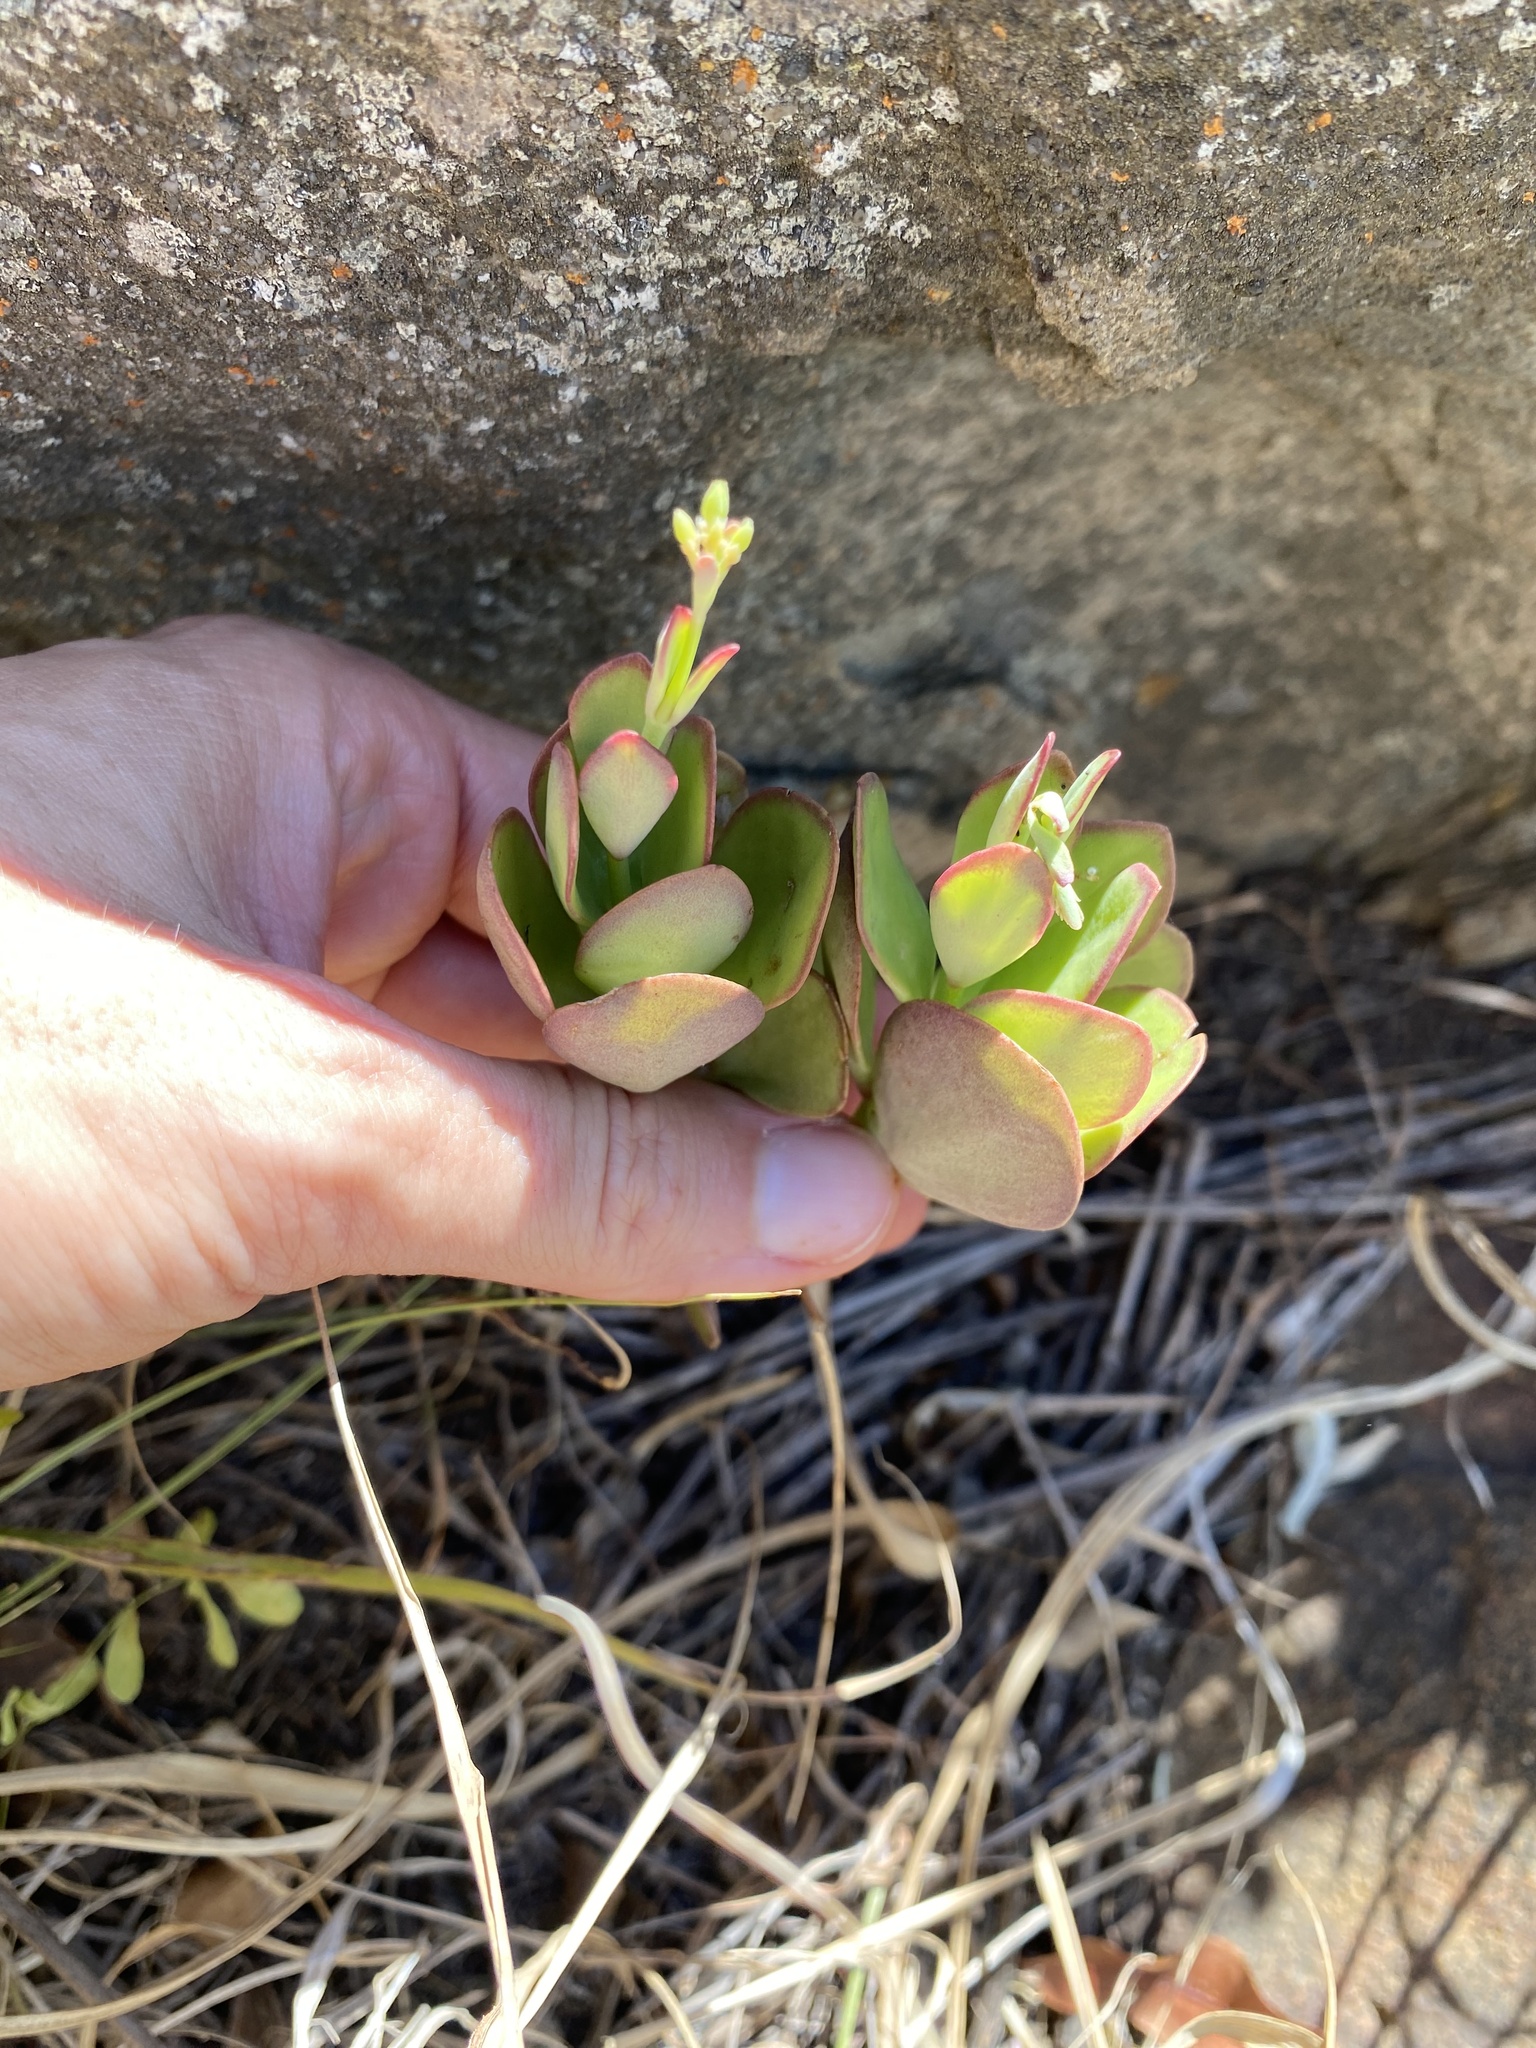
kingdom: Plantae
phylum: Tracheophyta
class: Magnoliopsida
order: Saxifragales
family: Crassulaceae
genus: Kalanchoe
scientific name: Kalanchoe rotundifolia
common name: Common kalanchoe
